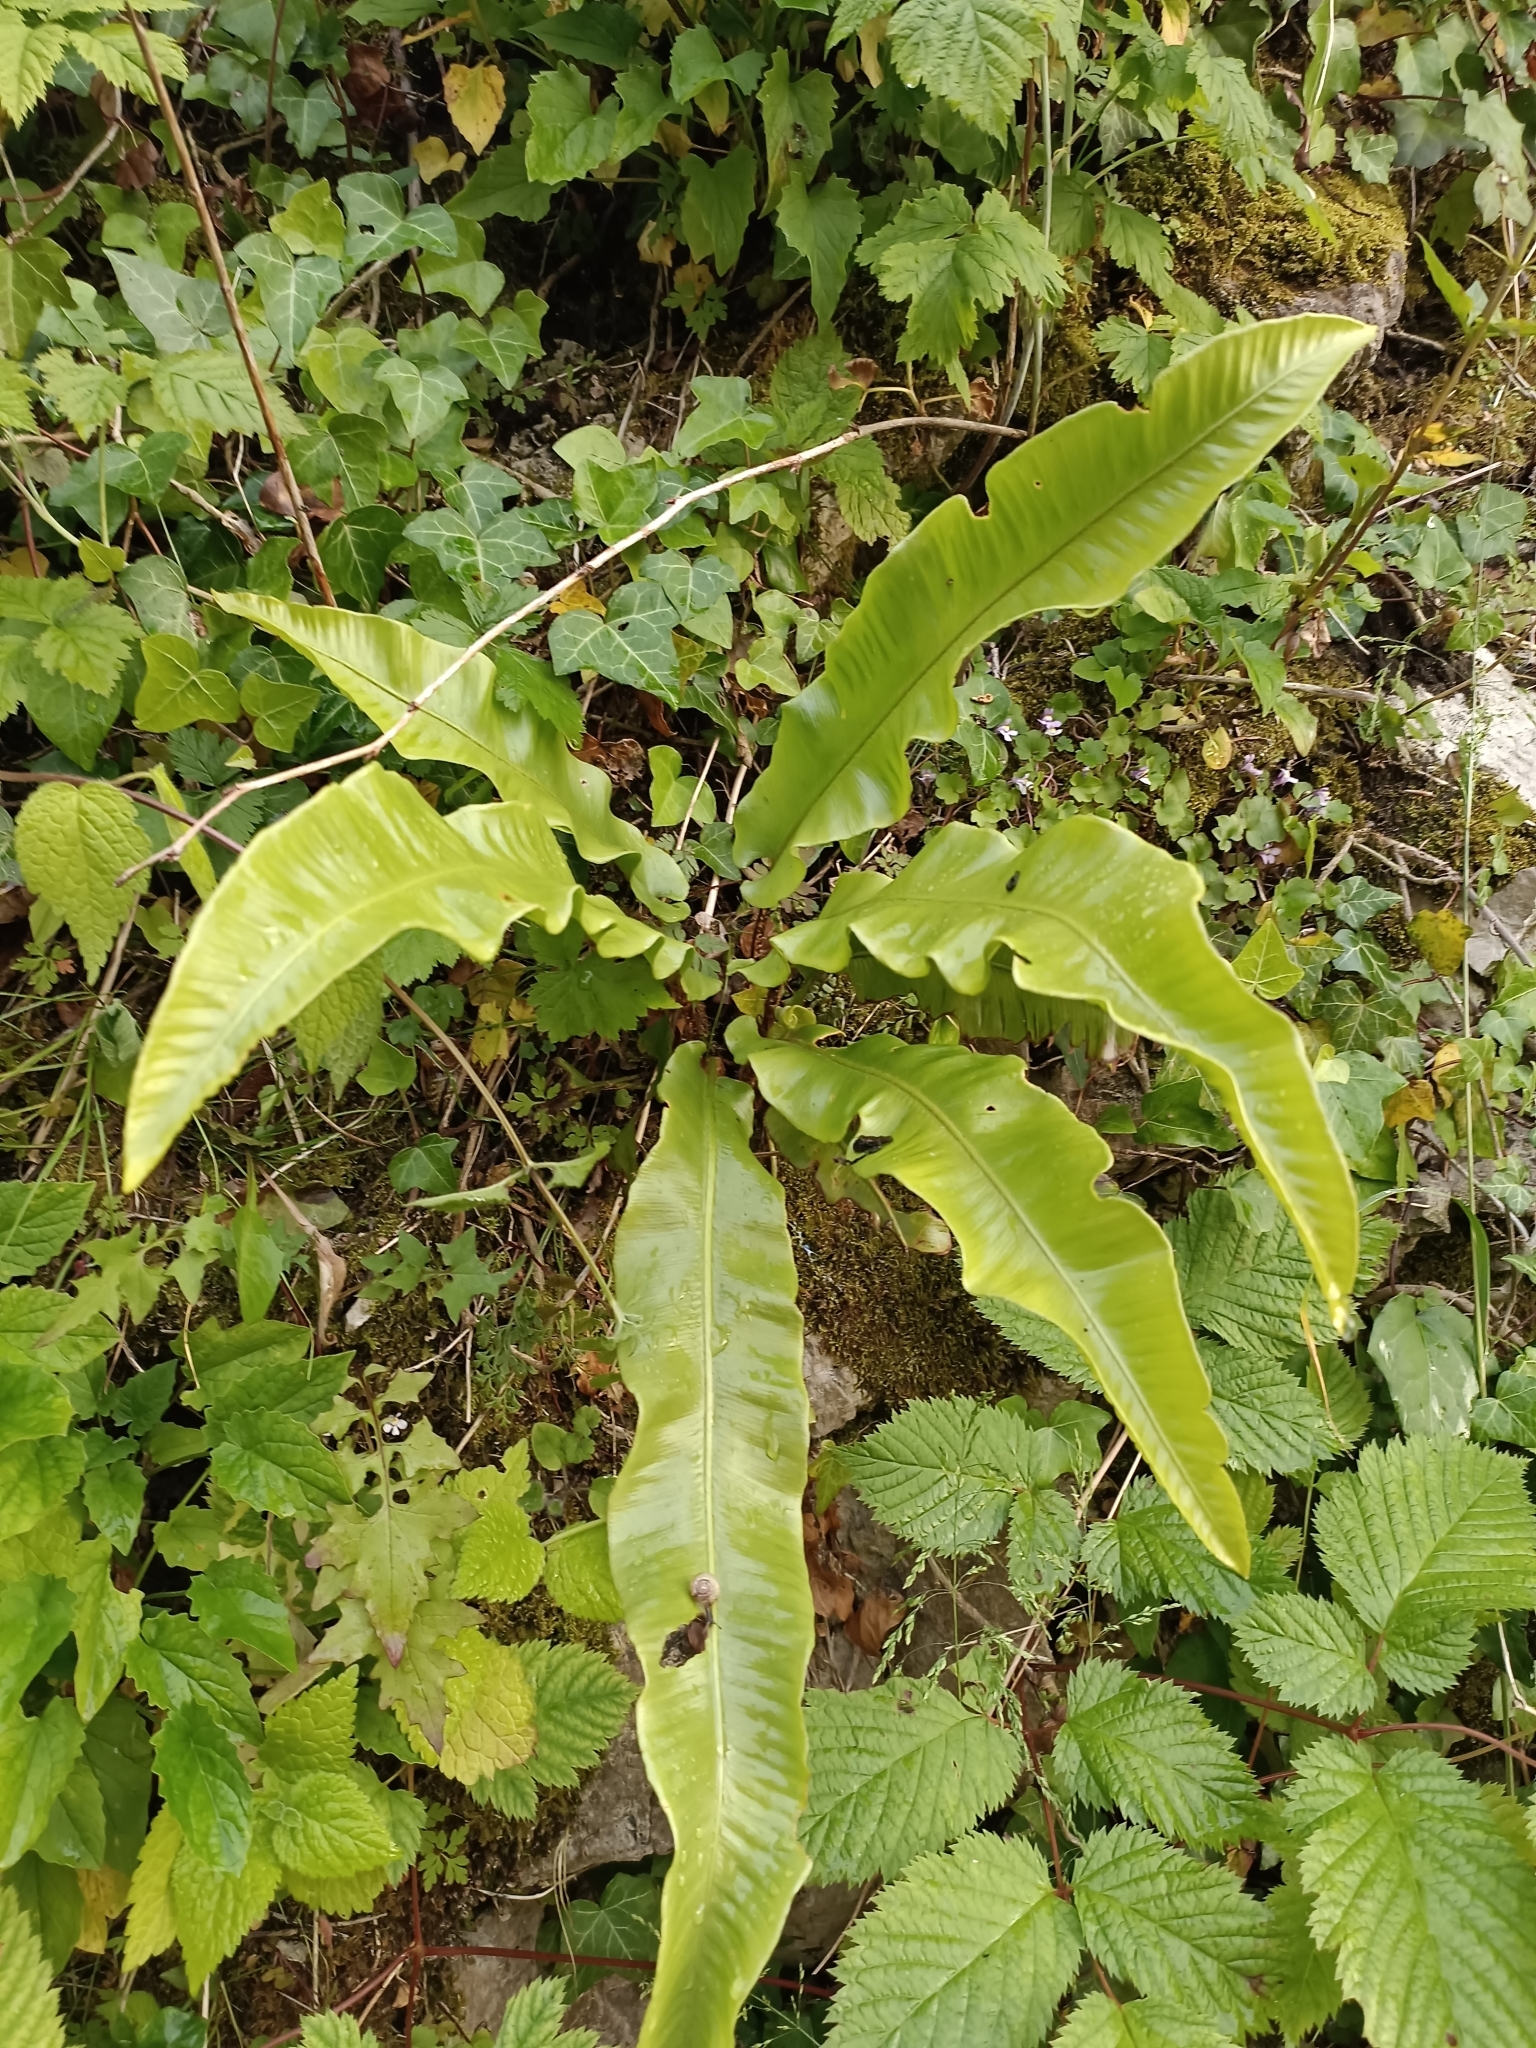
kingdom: Plantae
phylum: Tracheophyta
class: Polypodiopsida
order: Polypodiales
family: Aspleniaceae
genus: Asplenium
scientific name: Asplenium scolopendrium
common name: Hart's-tongue fern
